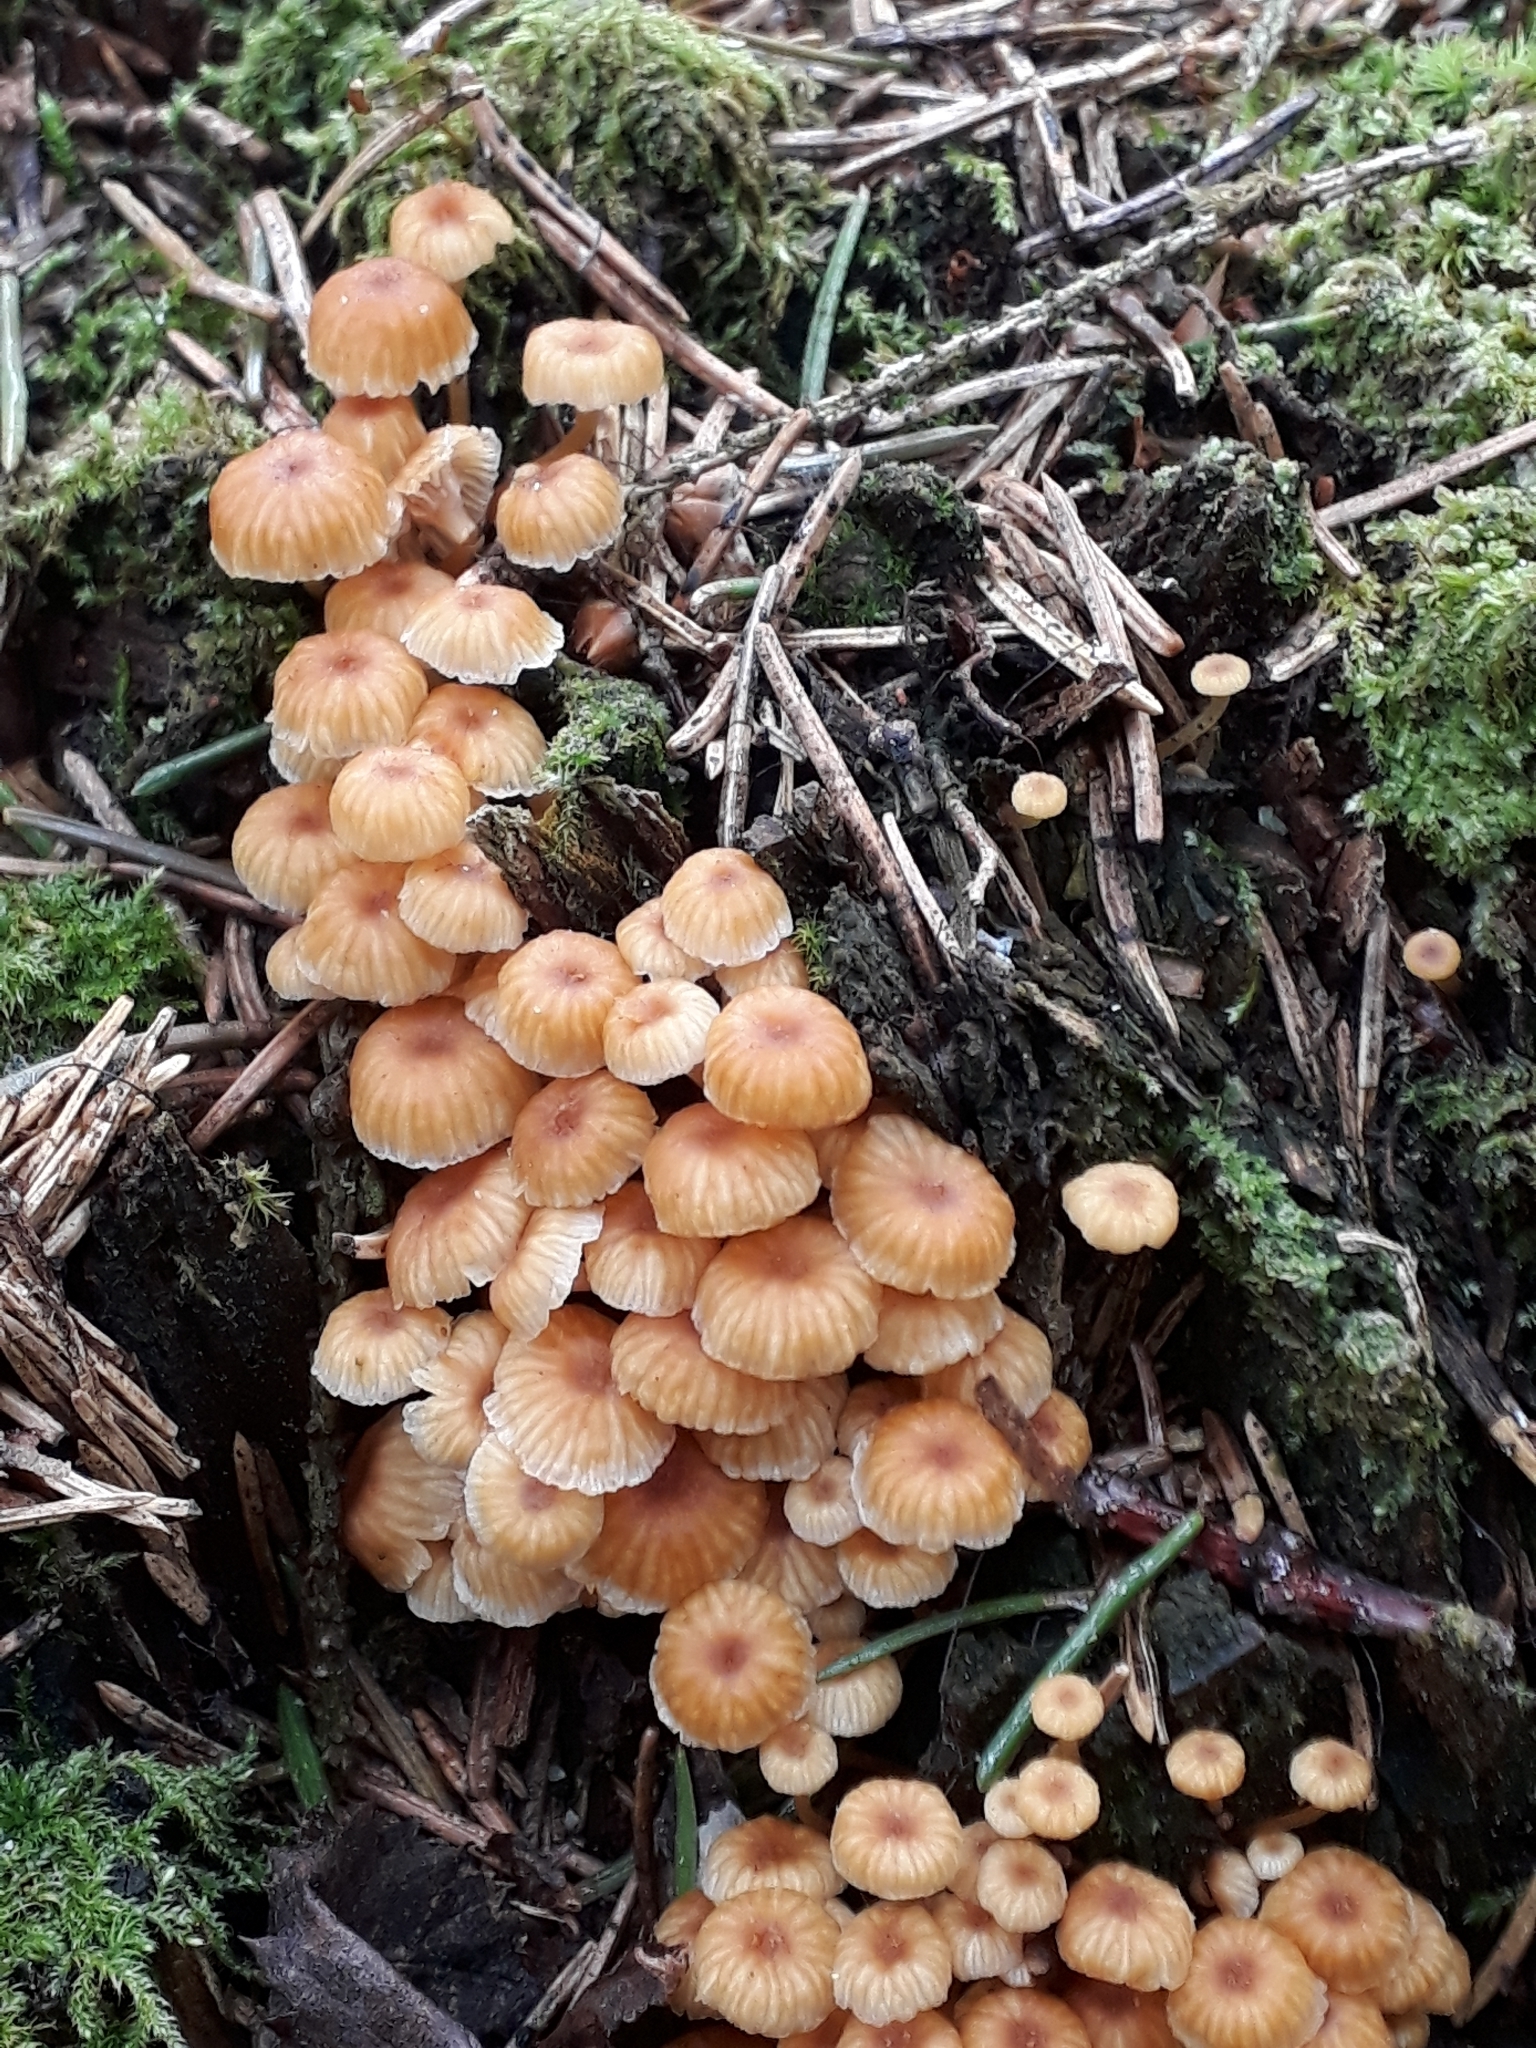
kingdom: Fungi
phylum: Basidiomycota
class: Agaricomycetes
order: Agaricales
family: Mycenaceae
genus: Xeromphalina
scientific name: Xeromphalina campanella
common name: Pinewood gingertail
